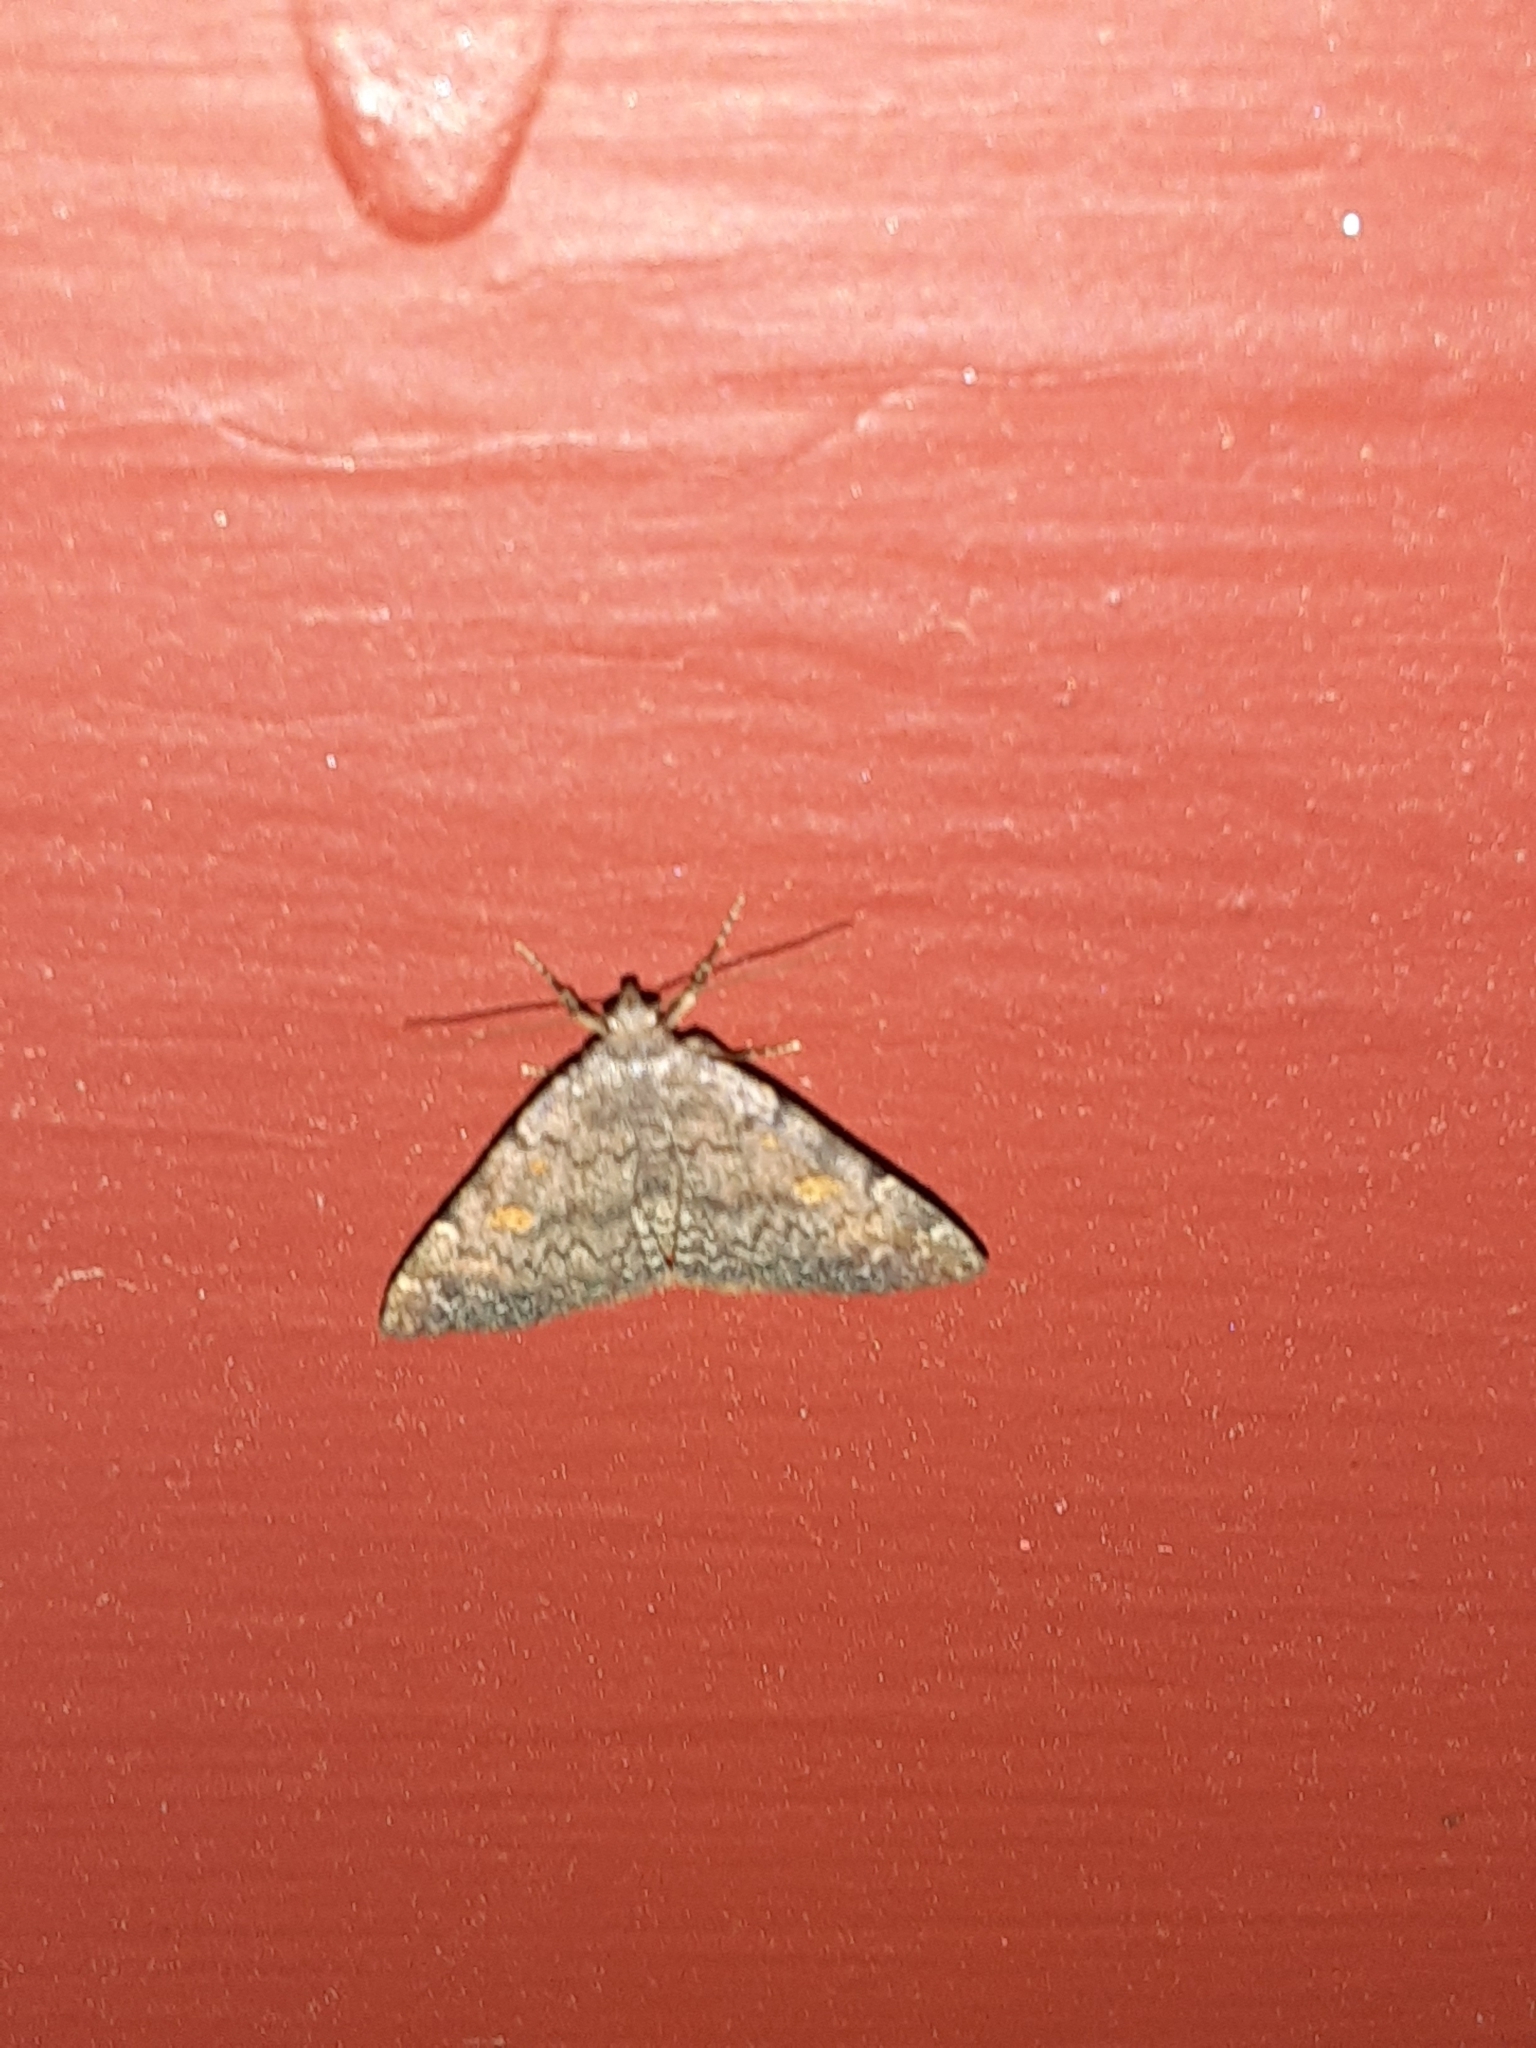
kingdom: Animalia
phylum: Arthropoda
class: Insecta
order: Lepidoptera
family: Erebidae
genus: Idia
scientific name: Idia aemula
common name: Common idia moth
